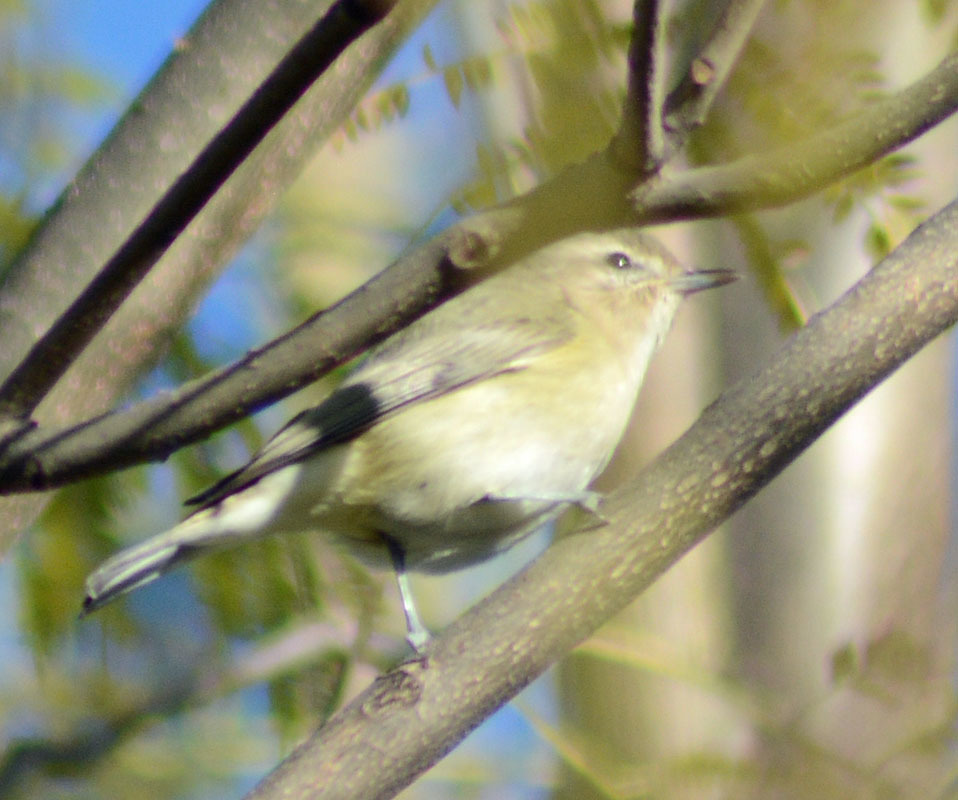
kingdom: Animalia
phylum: Chordata
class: Aves
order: Passeriformes
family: Vireonidae
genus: Vireo
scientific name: Vireo gilvus
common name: Warbling vireo
